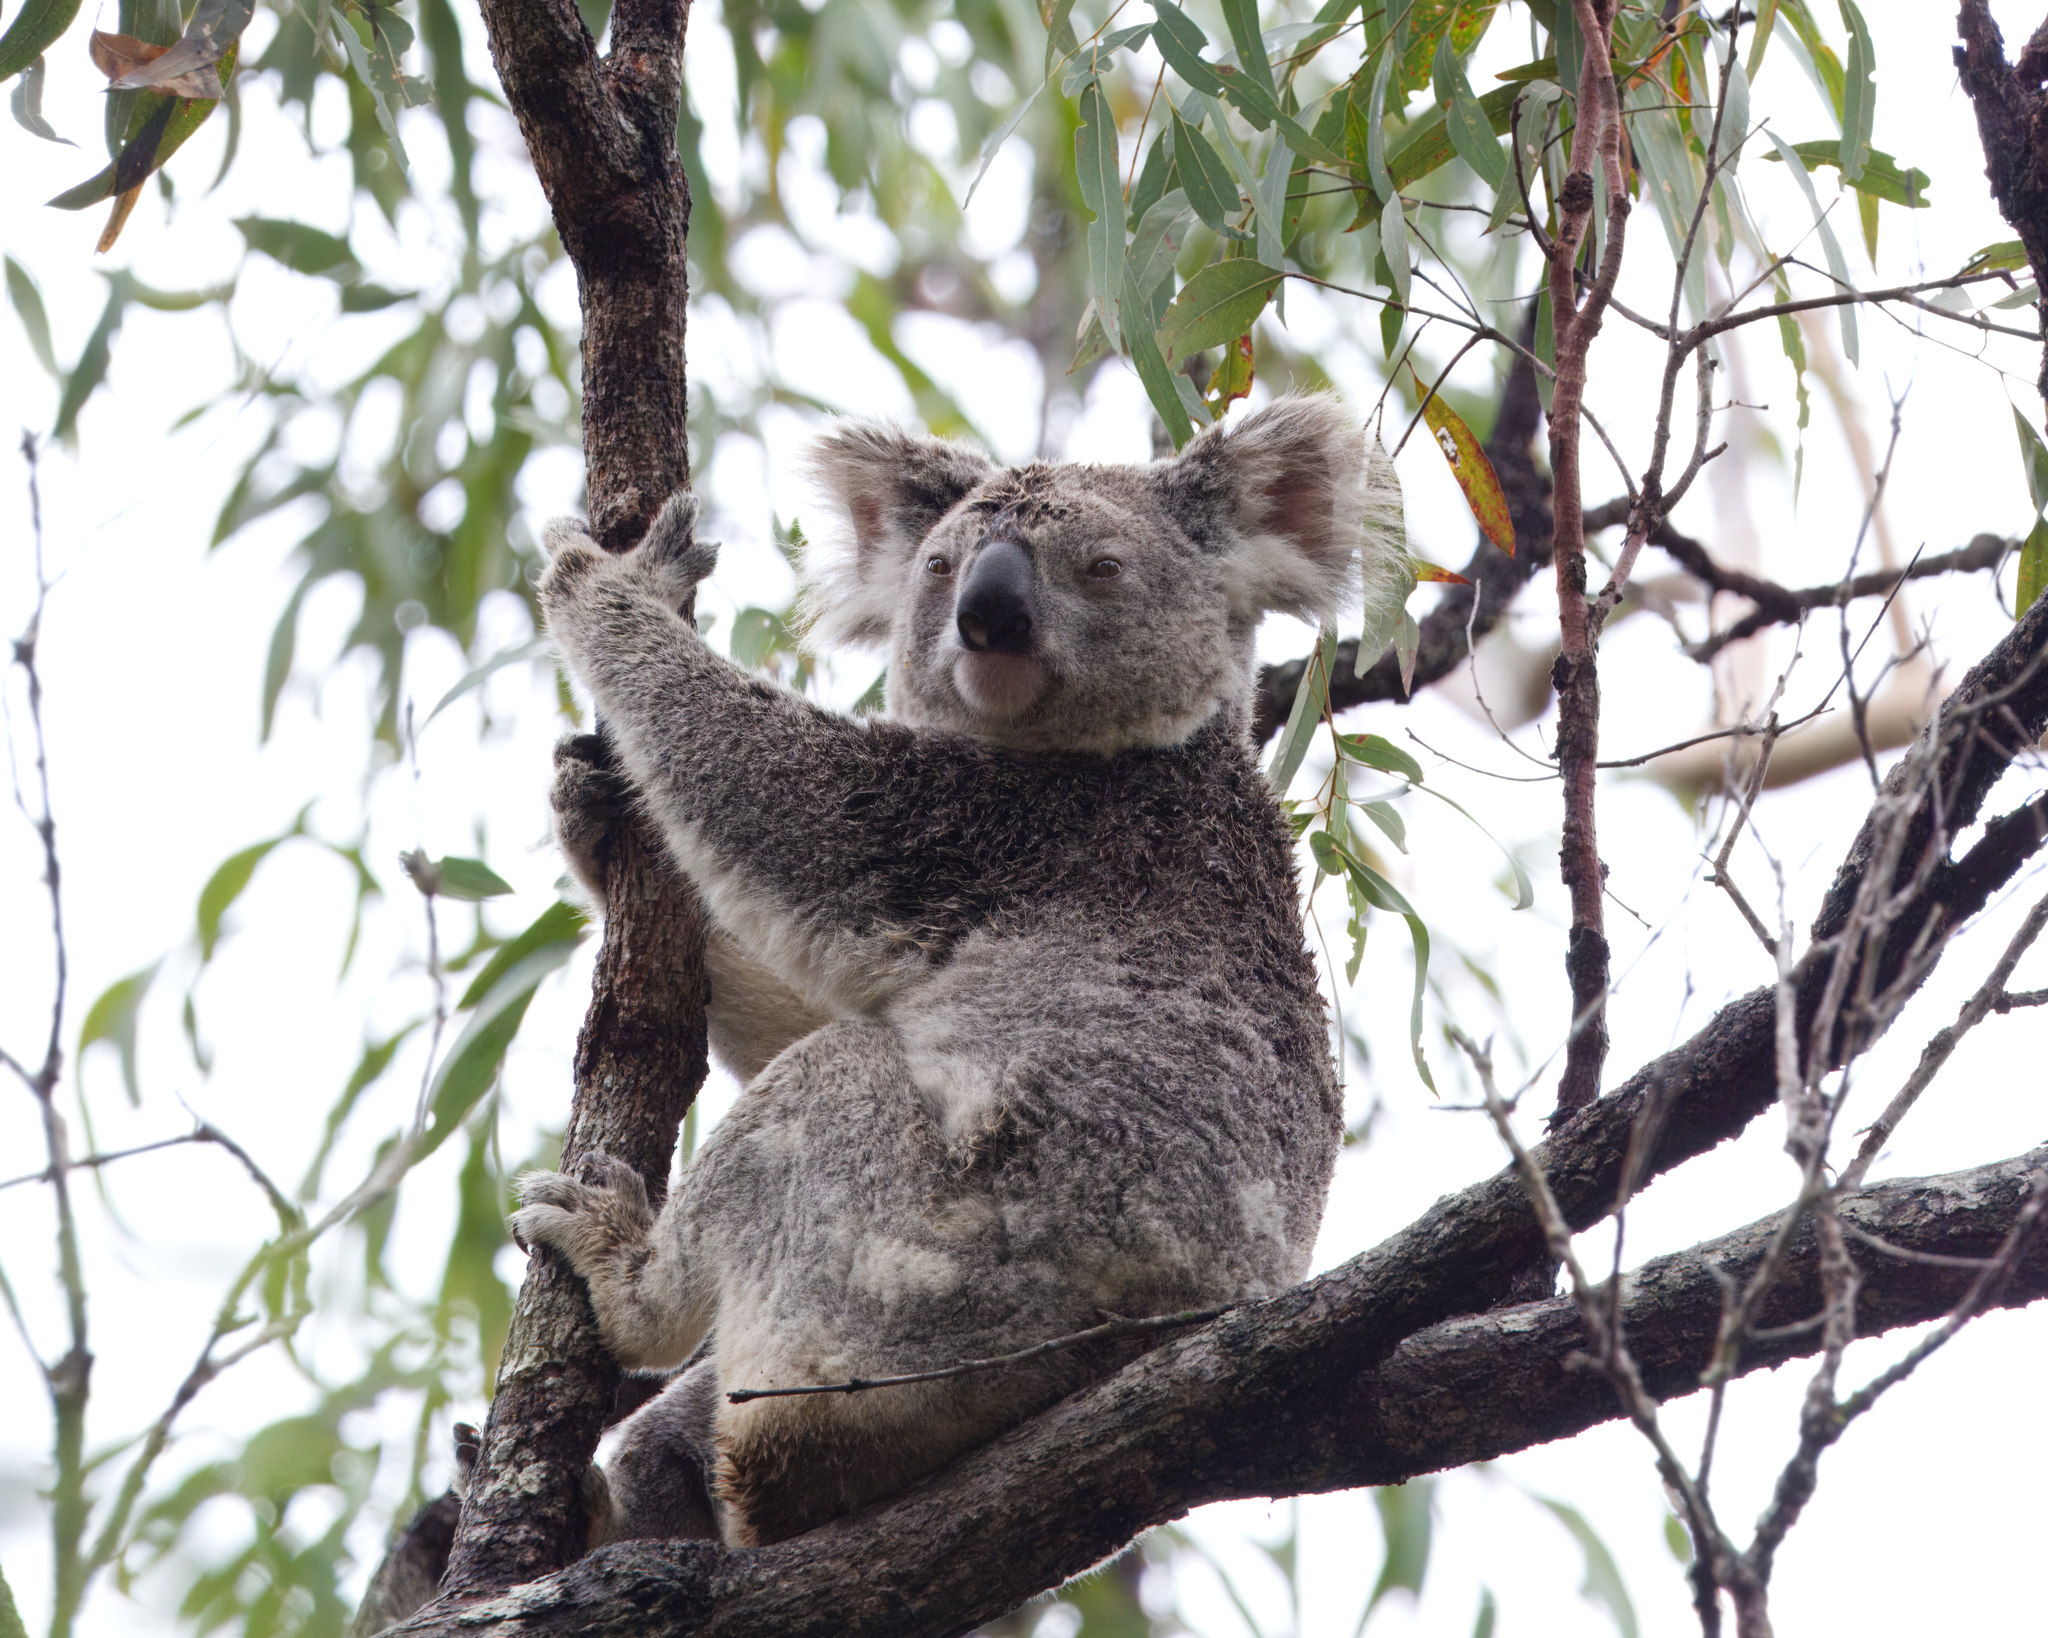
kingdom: Animalia
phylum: Chordata
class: Mammalia
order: Diprotodontia
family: Phascolarctidae
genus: Phascolarctos
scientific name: Phascolarctos cinereus
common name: Koala
